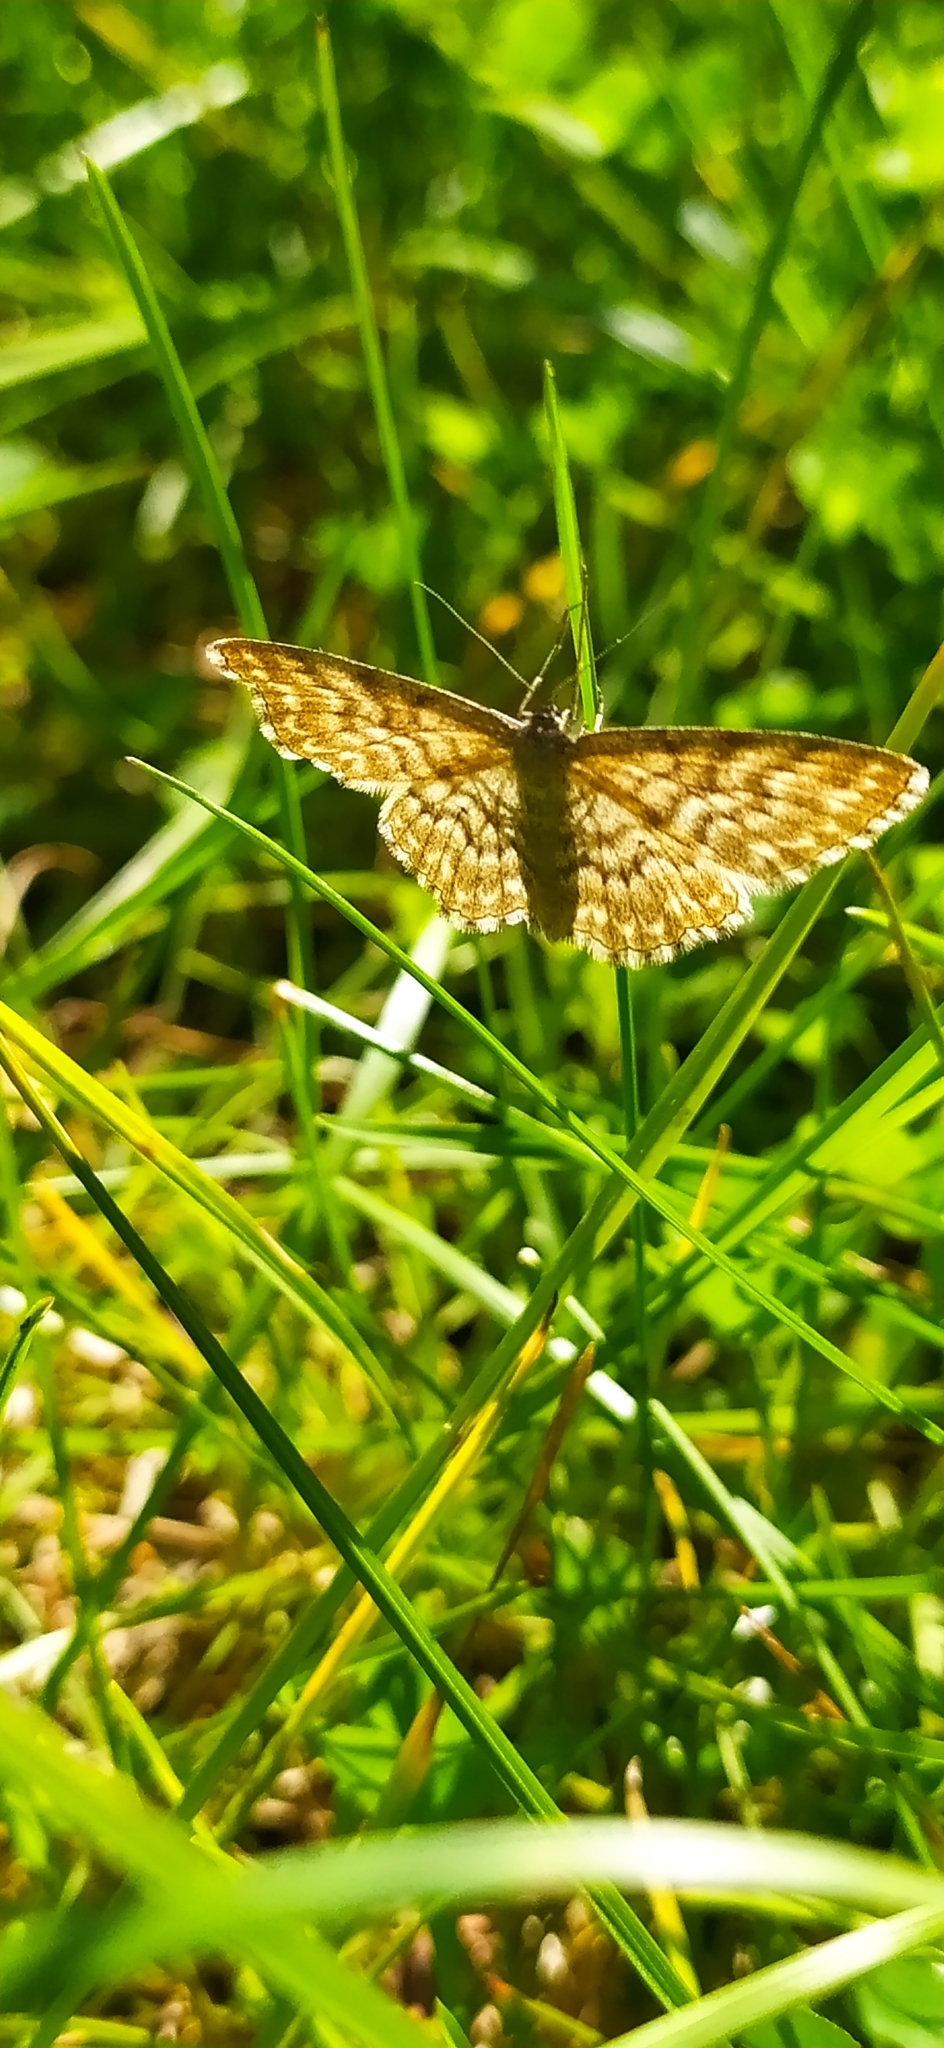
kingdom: Animalia
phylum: Arthropoda
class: Insecta
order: Lepidoptera
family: Geometridae
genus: Scopula
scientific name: Scopula immorata
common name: Lewes wave
